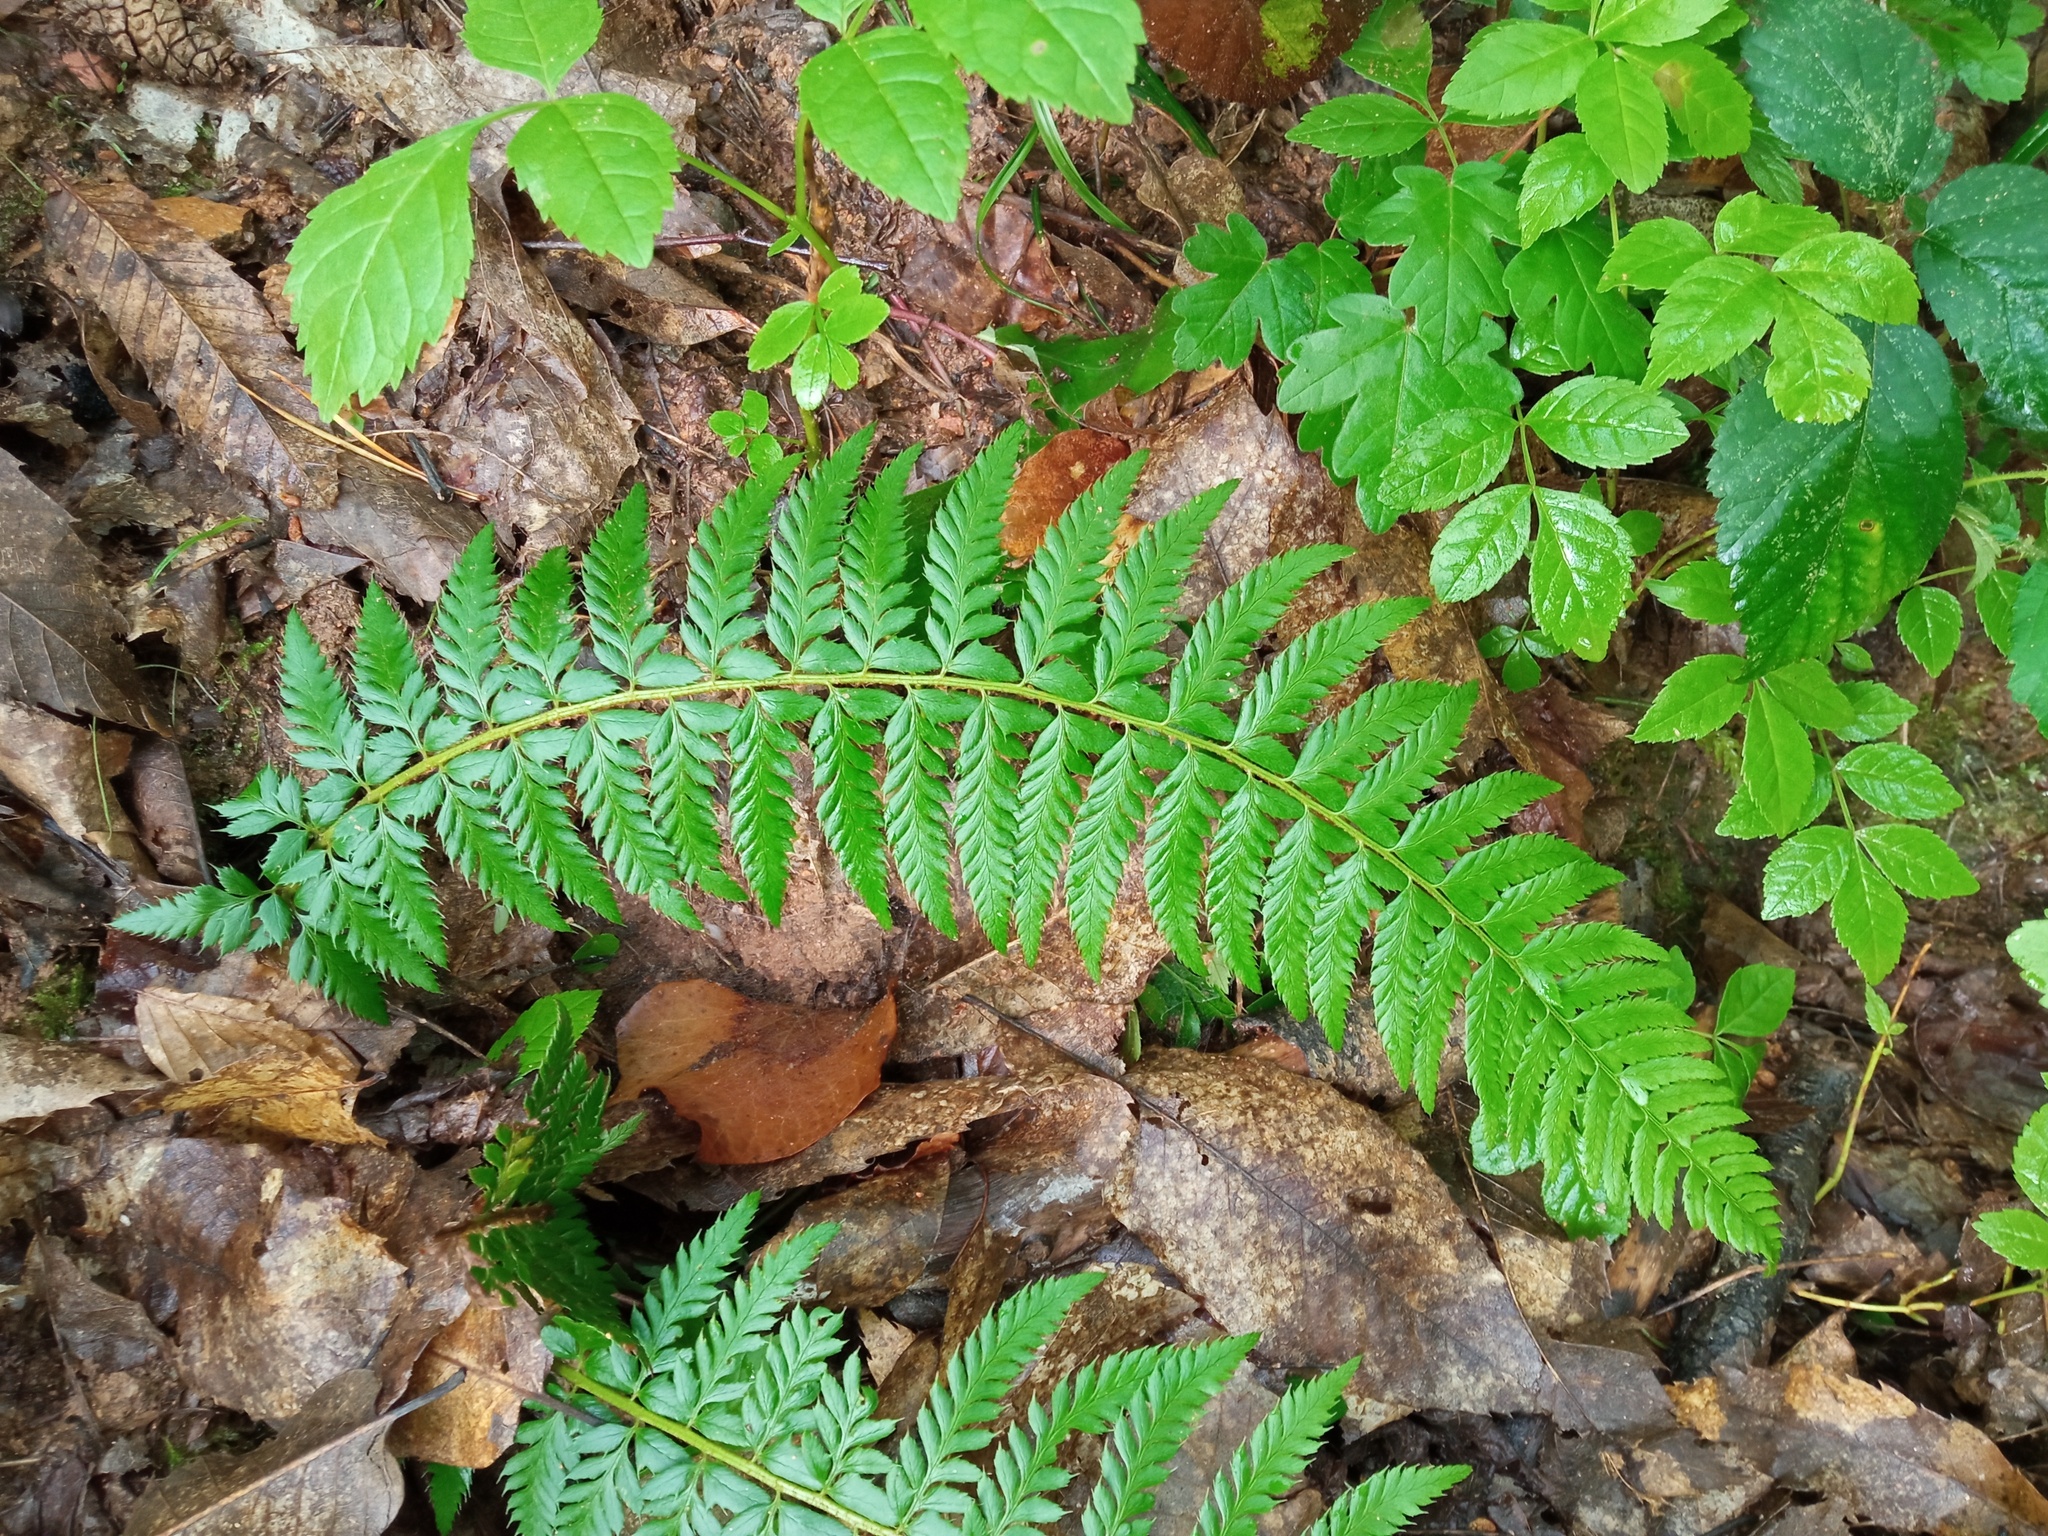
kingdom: Plantae
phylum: Tracheophyta
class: Polypodiopsida
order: Polypodiales
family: Dryopteridaceae
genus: Polystichum
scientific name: Polystichum aculeatum
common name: Hard shield-fern
